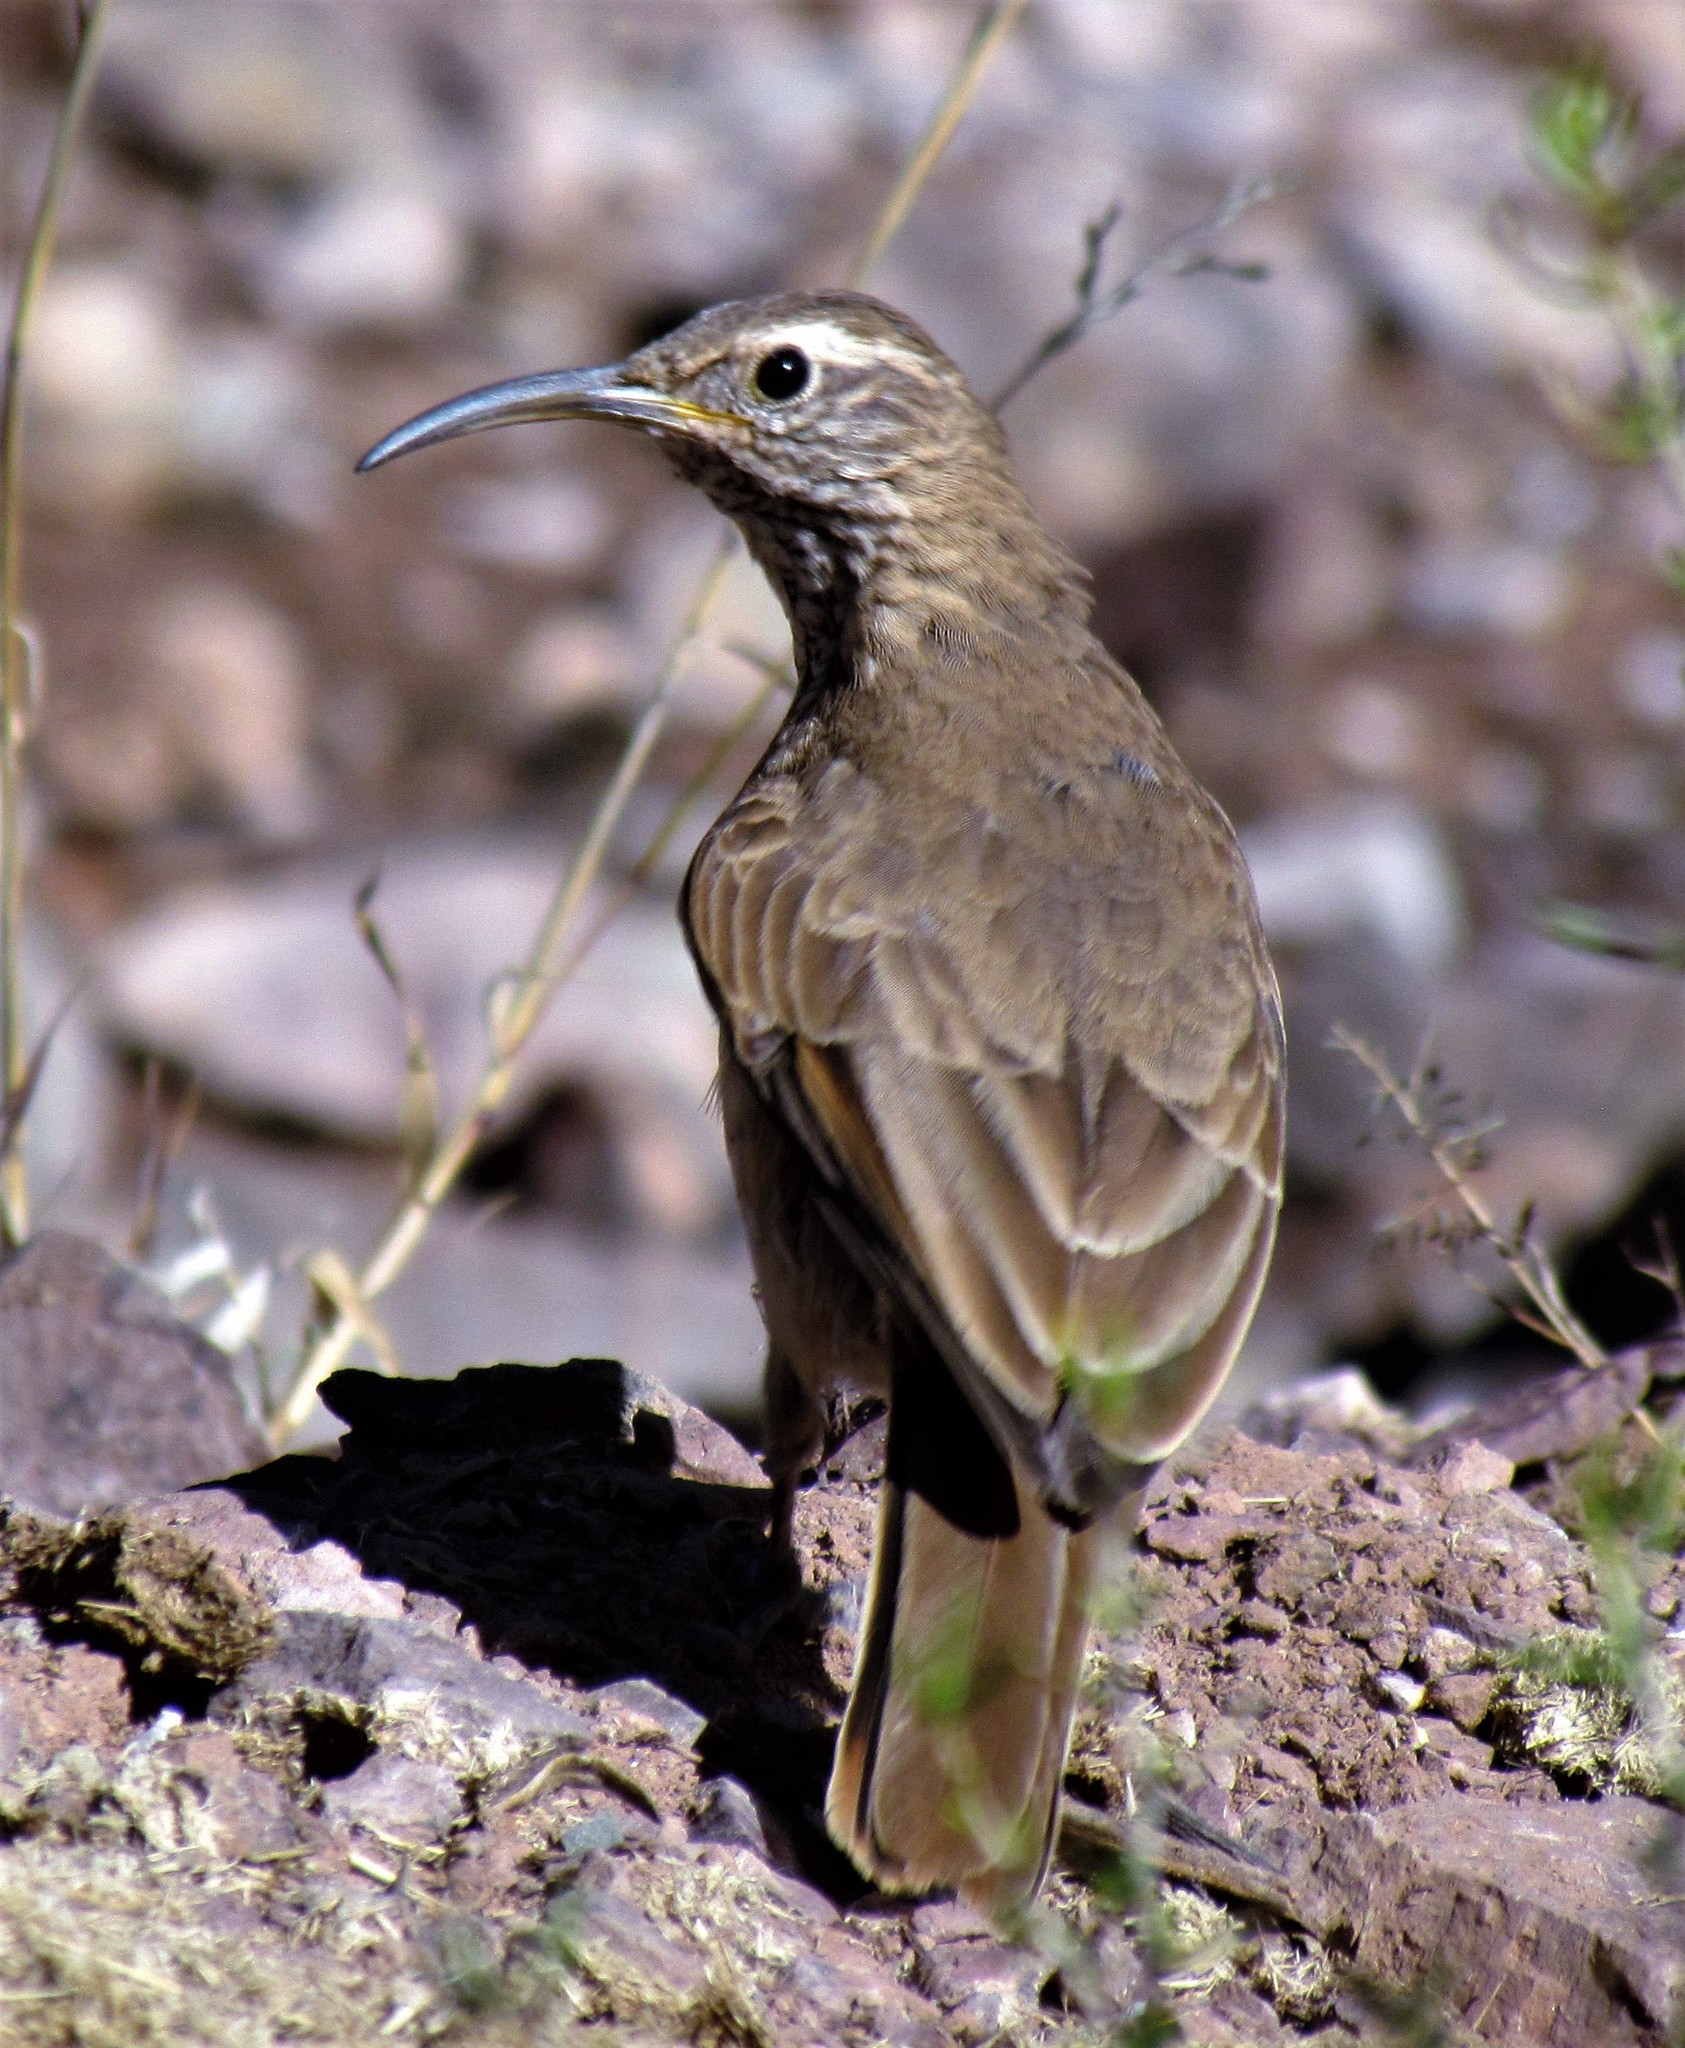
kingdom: Animalia
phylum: Chordata
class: Aves
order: Passeriformes
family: Furnariidae
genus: Upucerthia
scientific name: Upucerthia dumetaria
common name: Scale-throated earthcreeper
